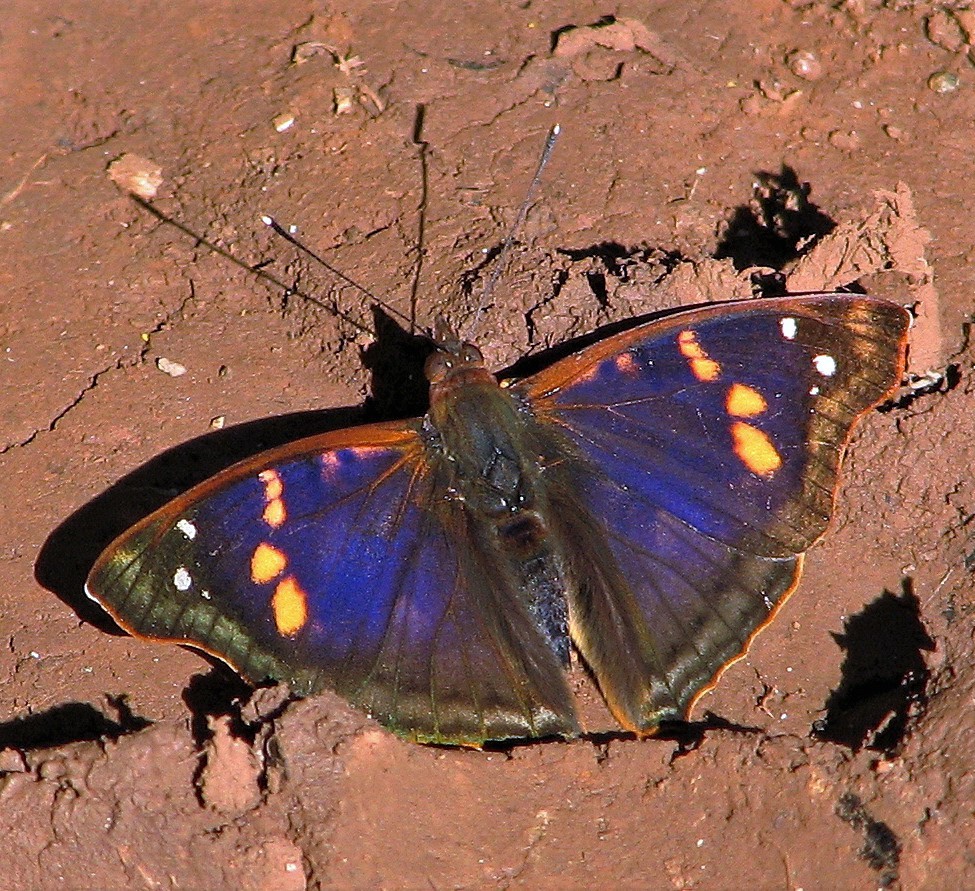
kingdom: Animalia
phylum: Arthropoda
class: Insecta
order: Lepidoptera
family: Nymphalidae
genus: Doxocopa
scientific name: Doxocopa agathina
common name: Agathina emperor
